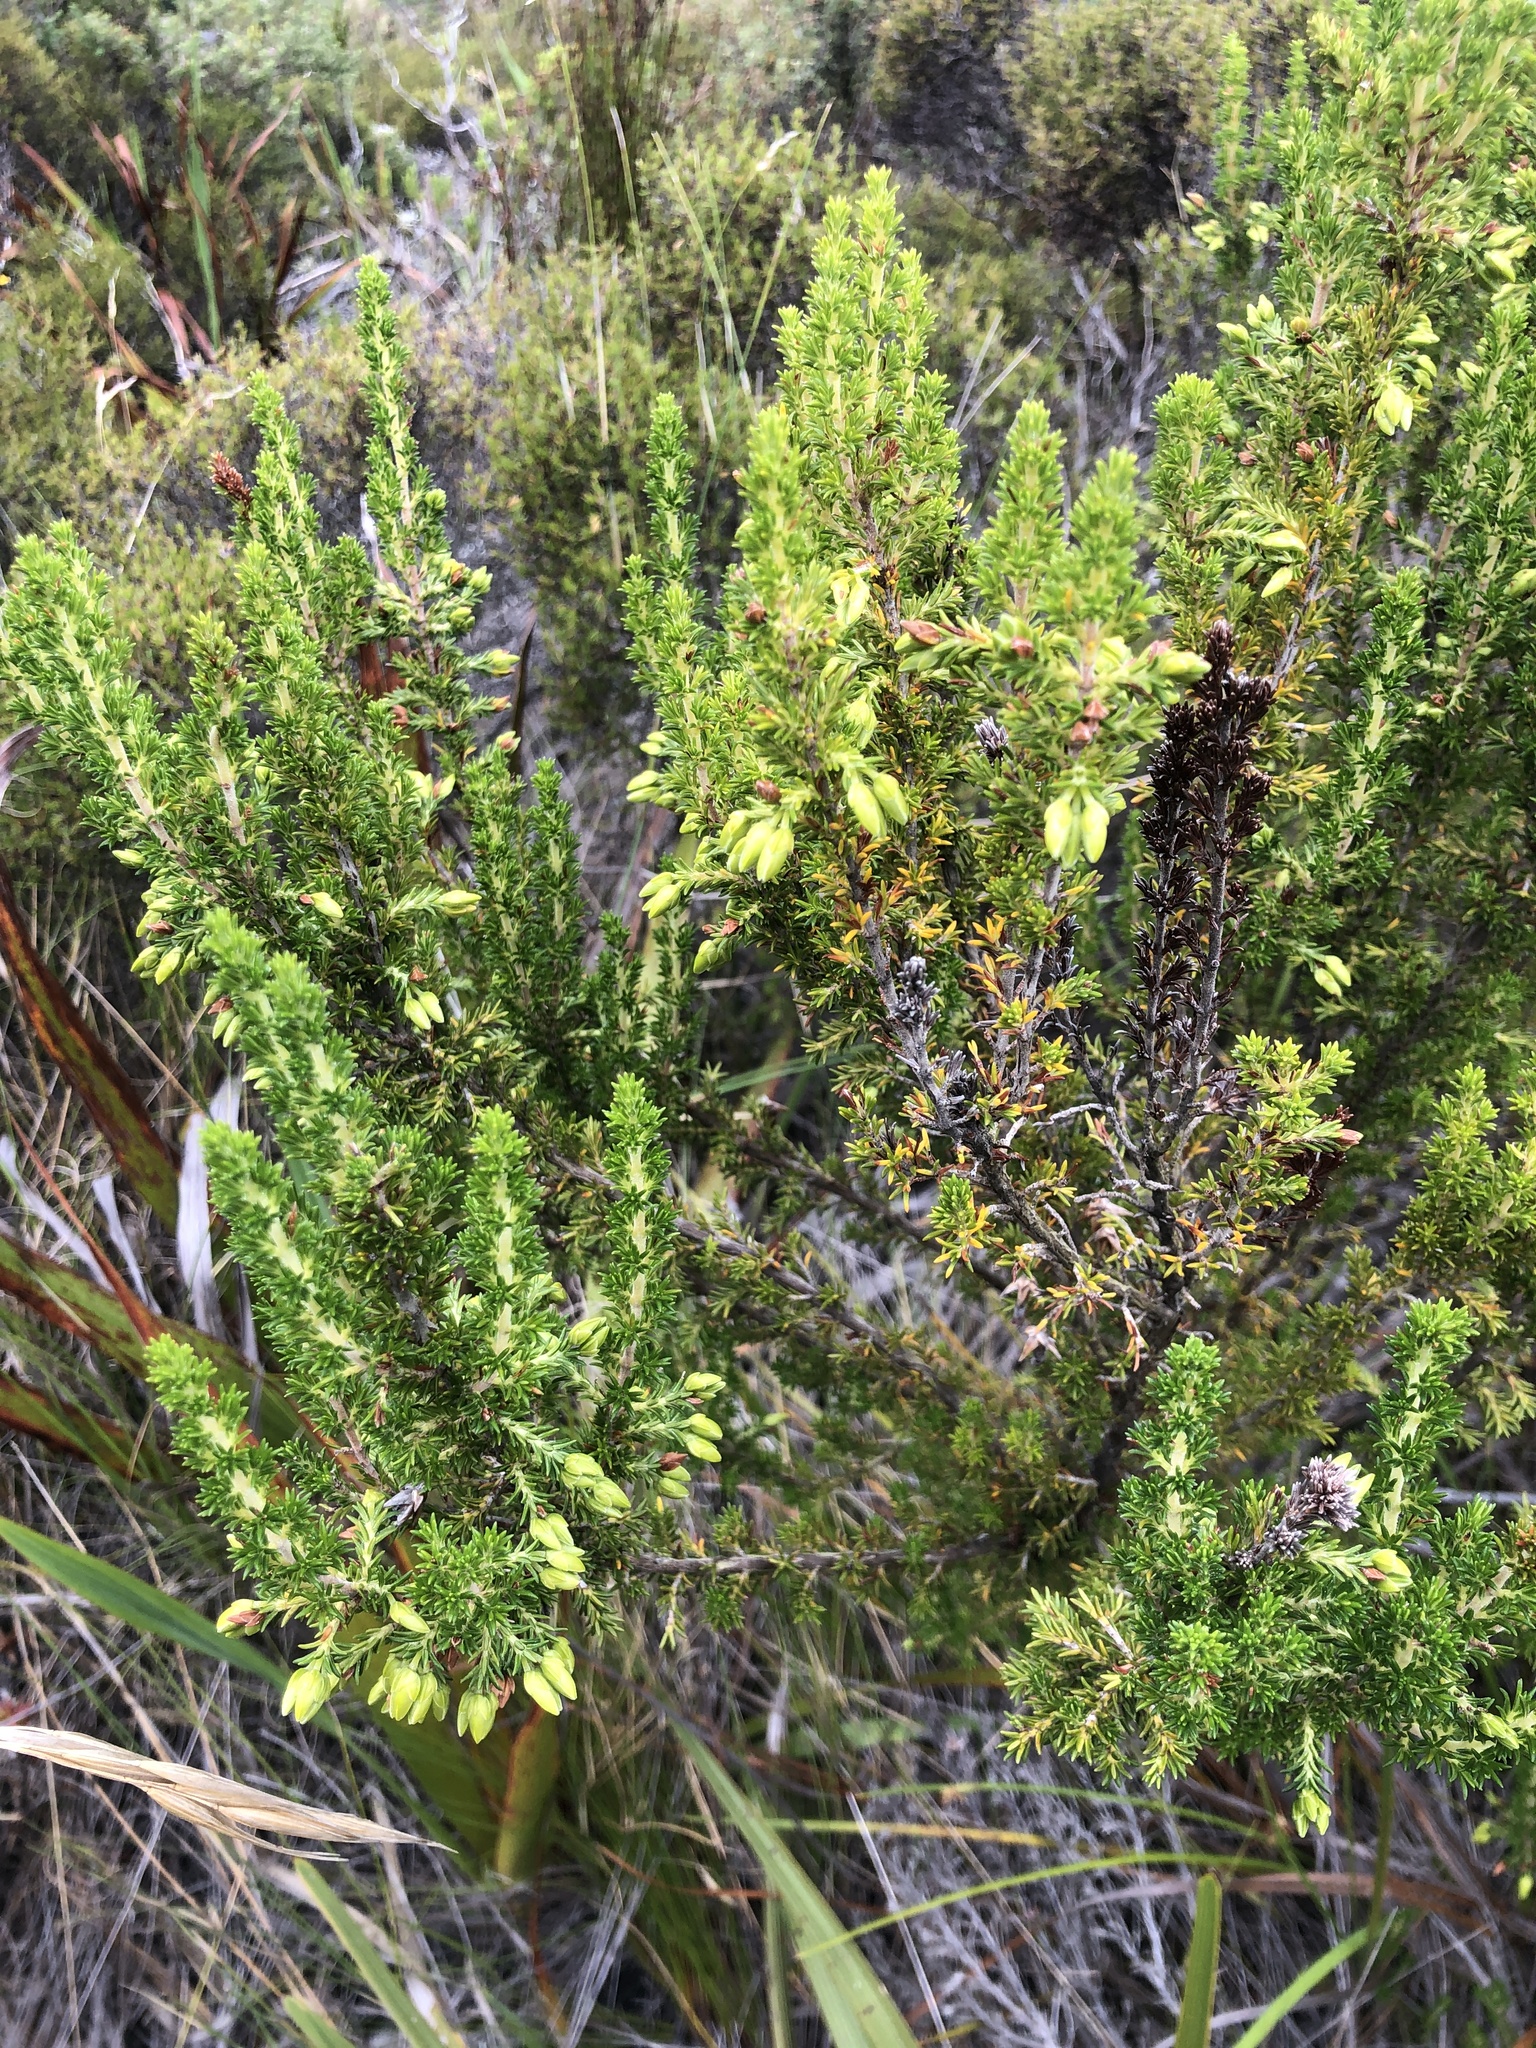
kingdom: Plantae
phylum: Tracheophyta
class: Magnoliopsida
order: Ericales
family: Ericaceae
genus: Erica
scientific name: Erica coccinea
